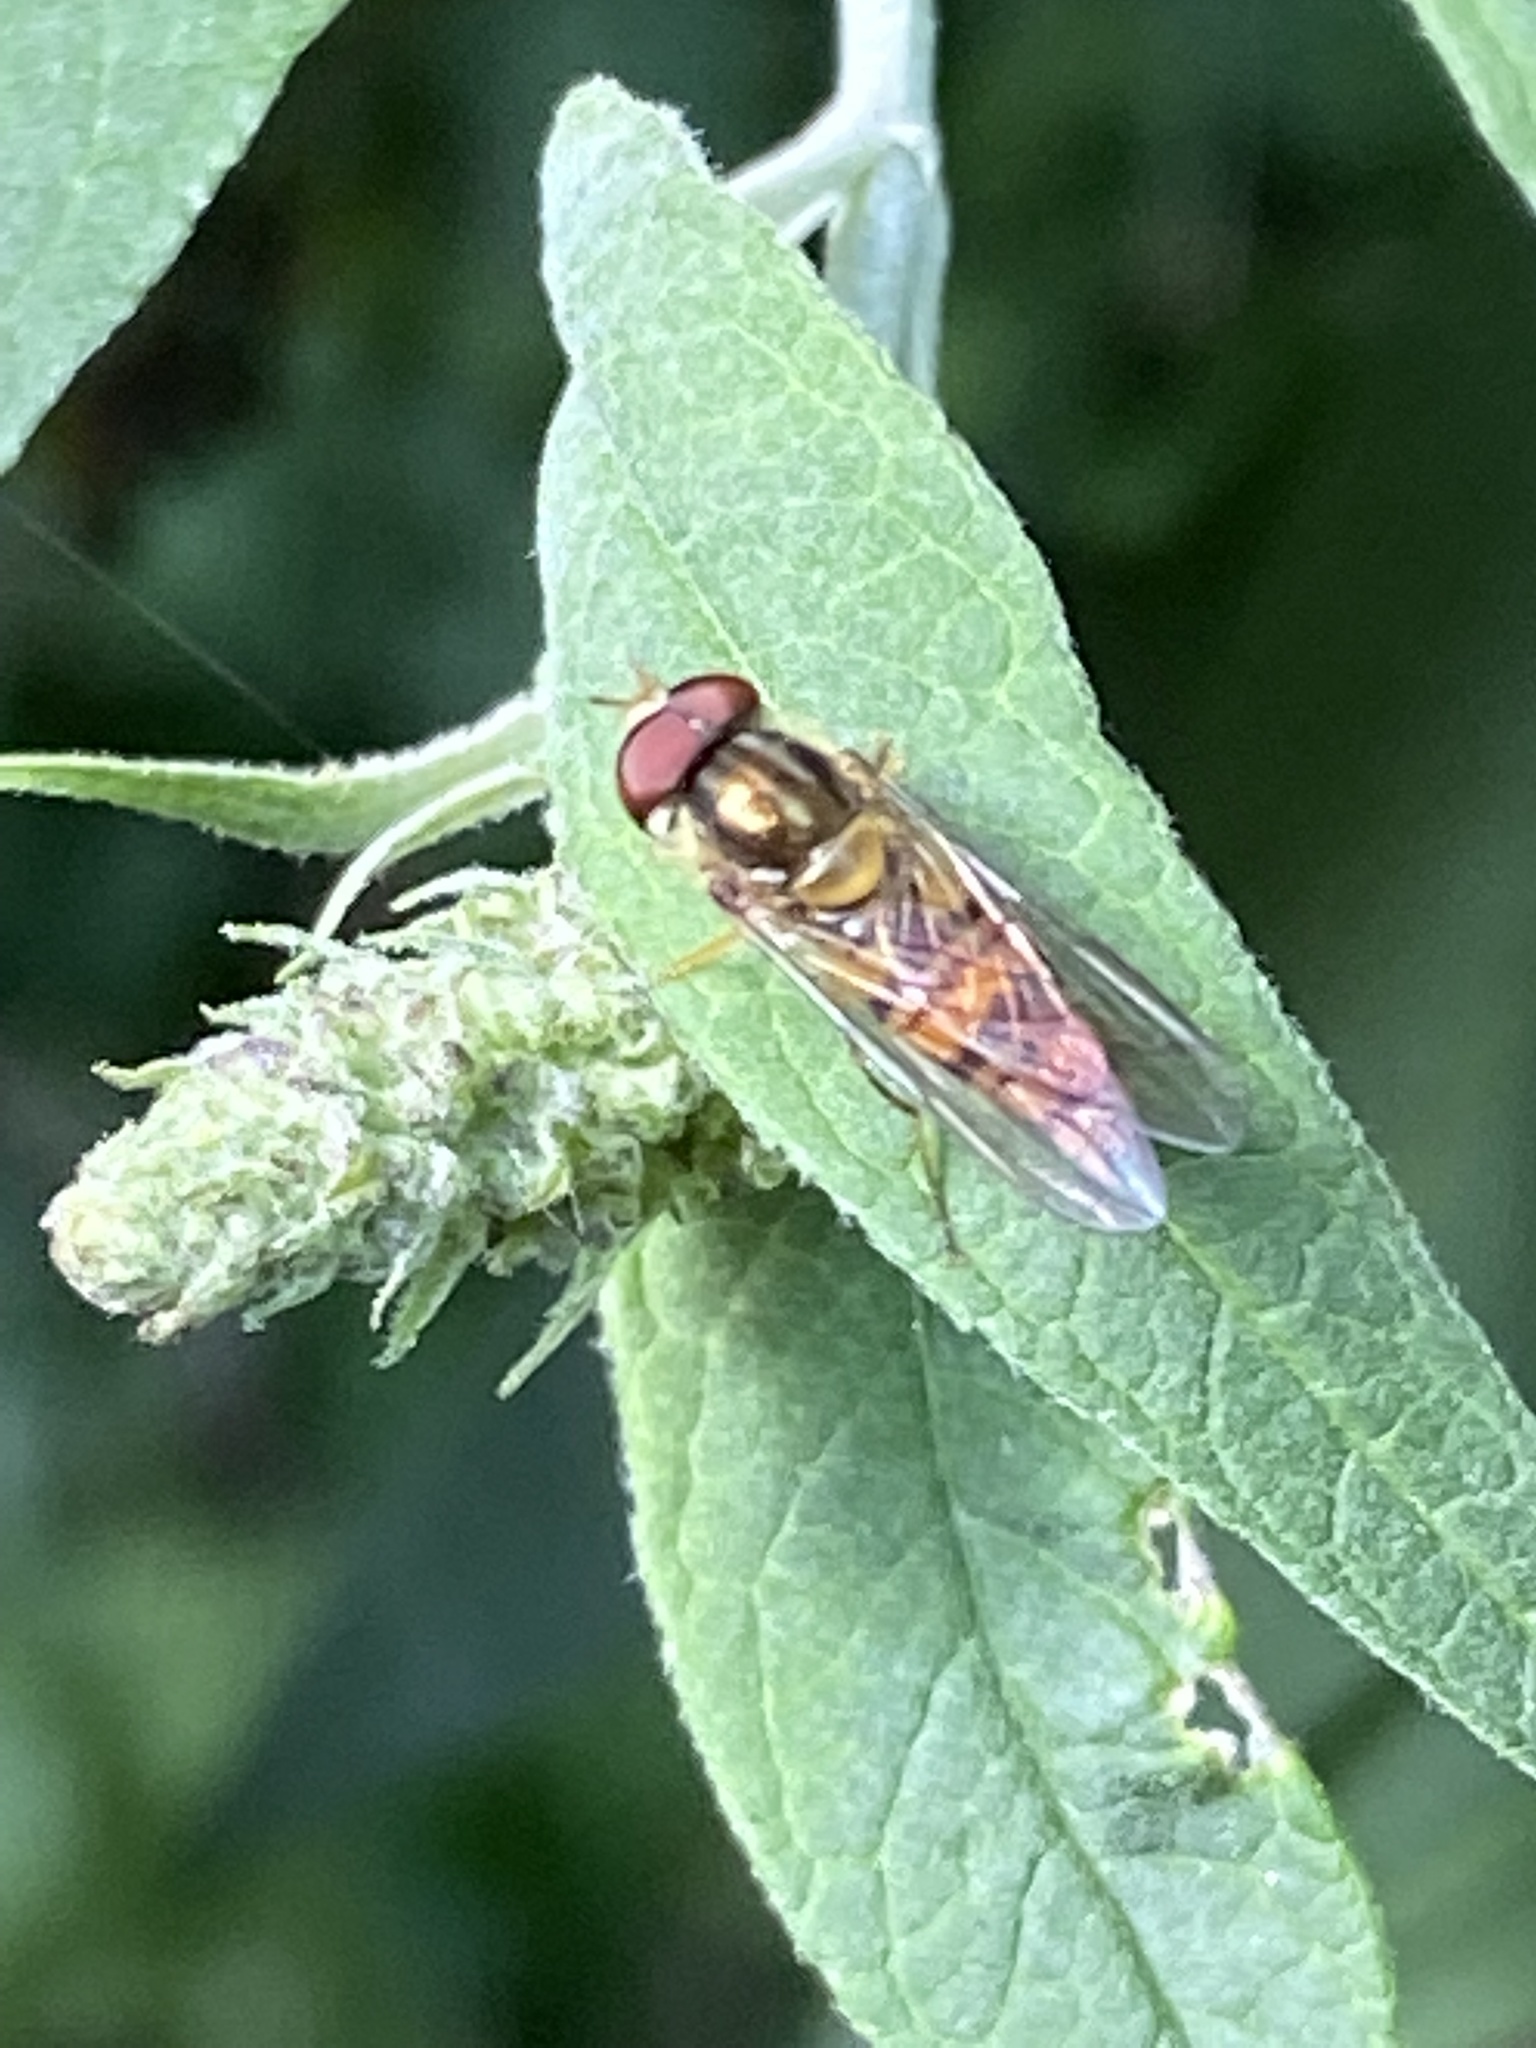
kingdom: Animalia
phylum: Arthropoda
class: Insecta
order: Diptera
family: Syrphidae
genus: Episyrphus
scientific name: Episyrphus balteatus
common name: Marmalade hoverfly
